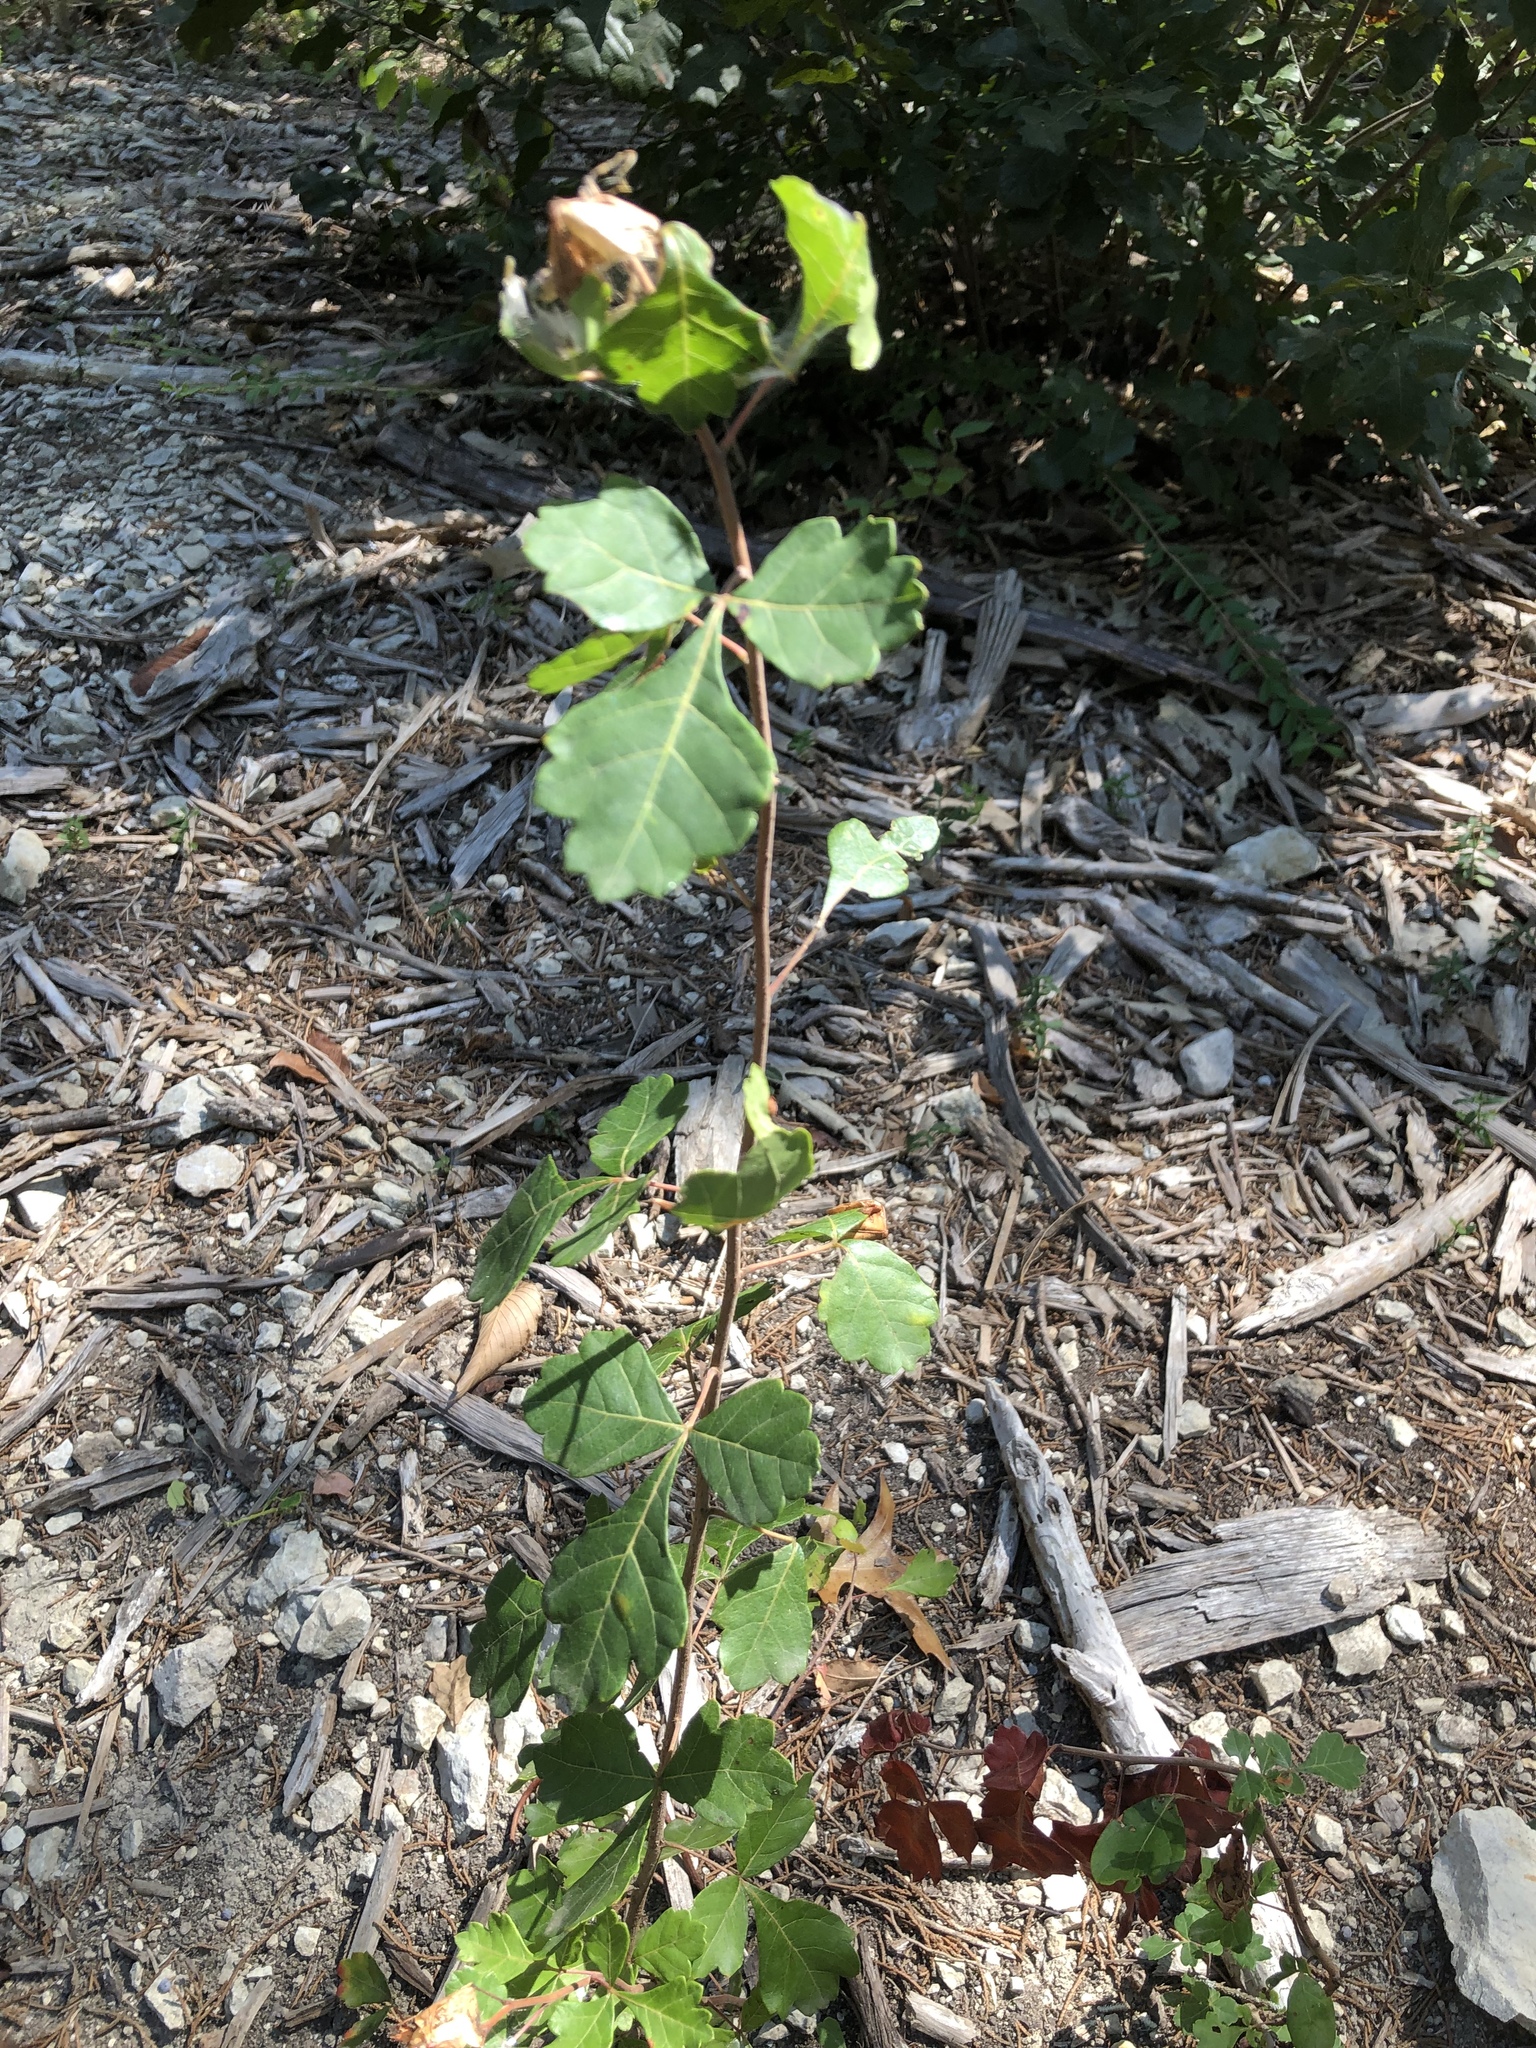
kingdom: Plantae
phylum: Tracheophyta
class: Magnoliopsida
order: Sapindales
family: Anacardiaceae
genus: Rhus
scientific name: Rhus aromatica
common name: Aromatic sumac
